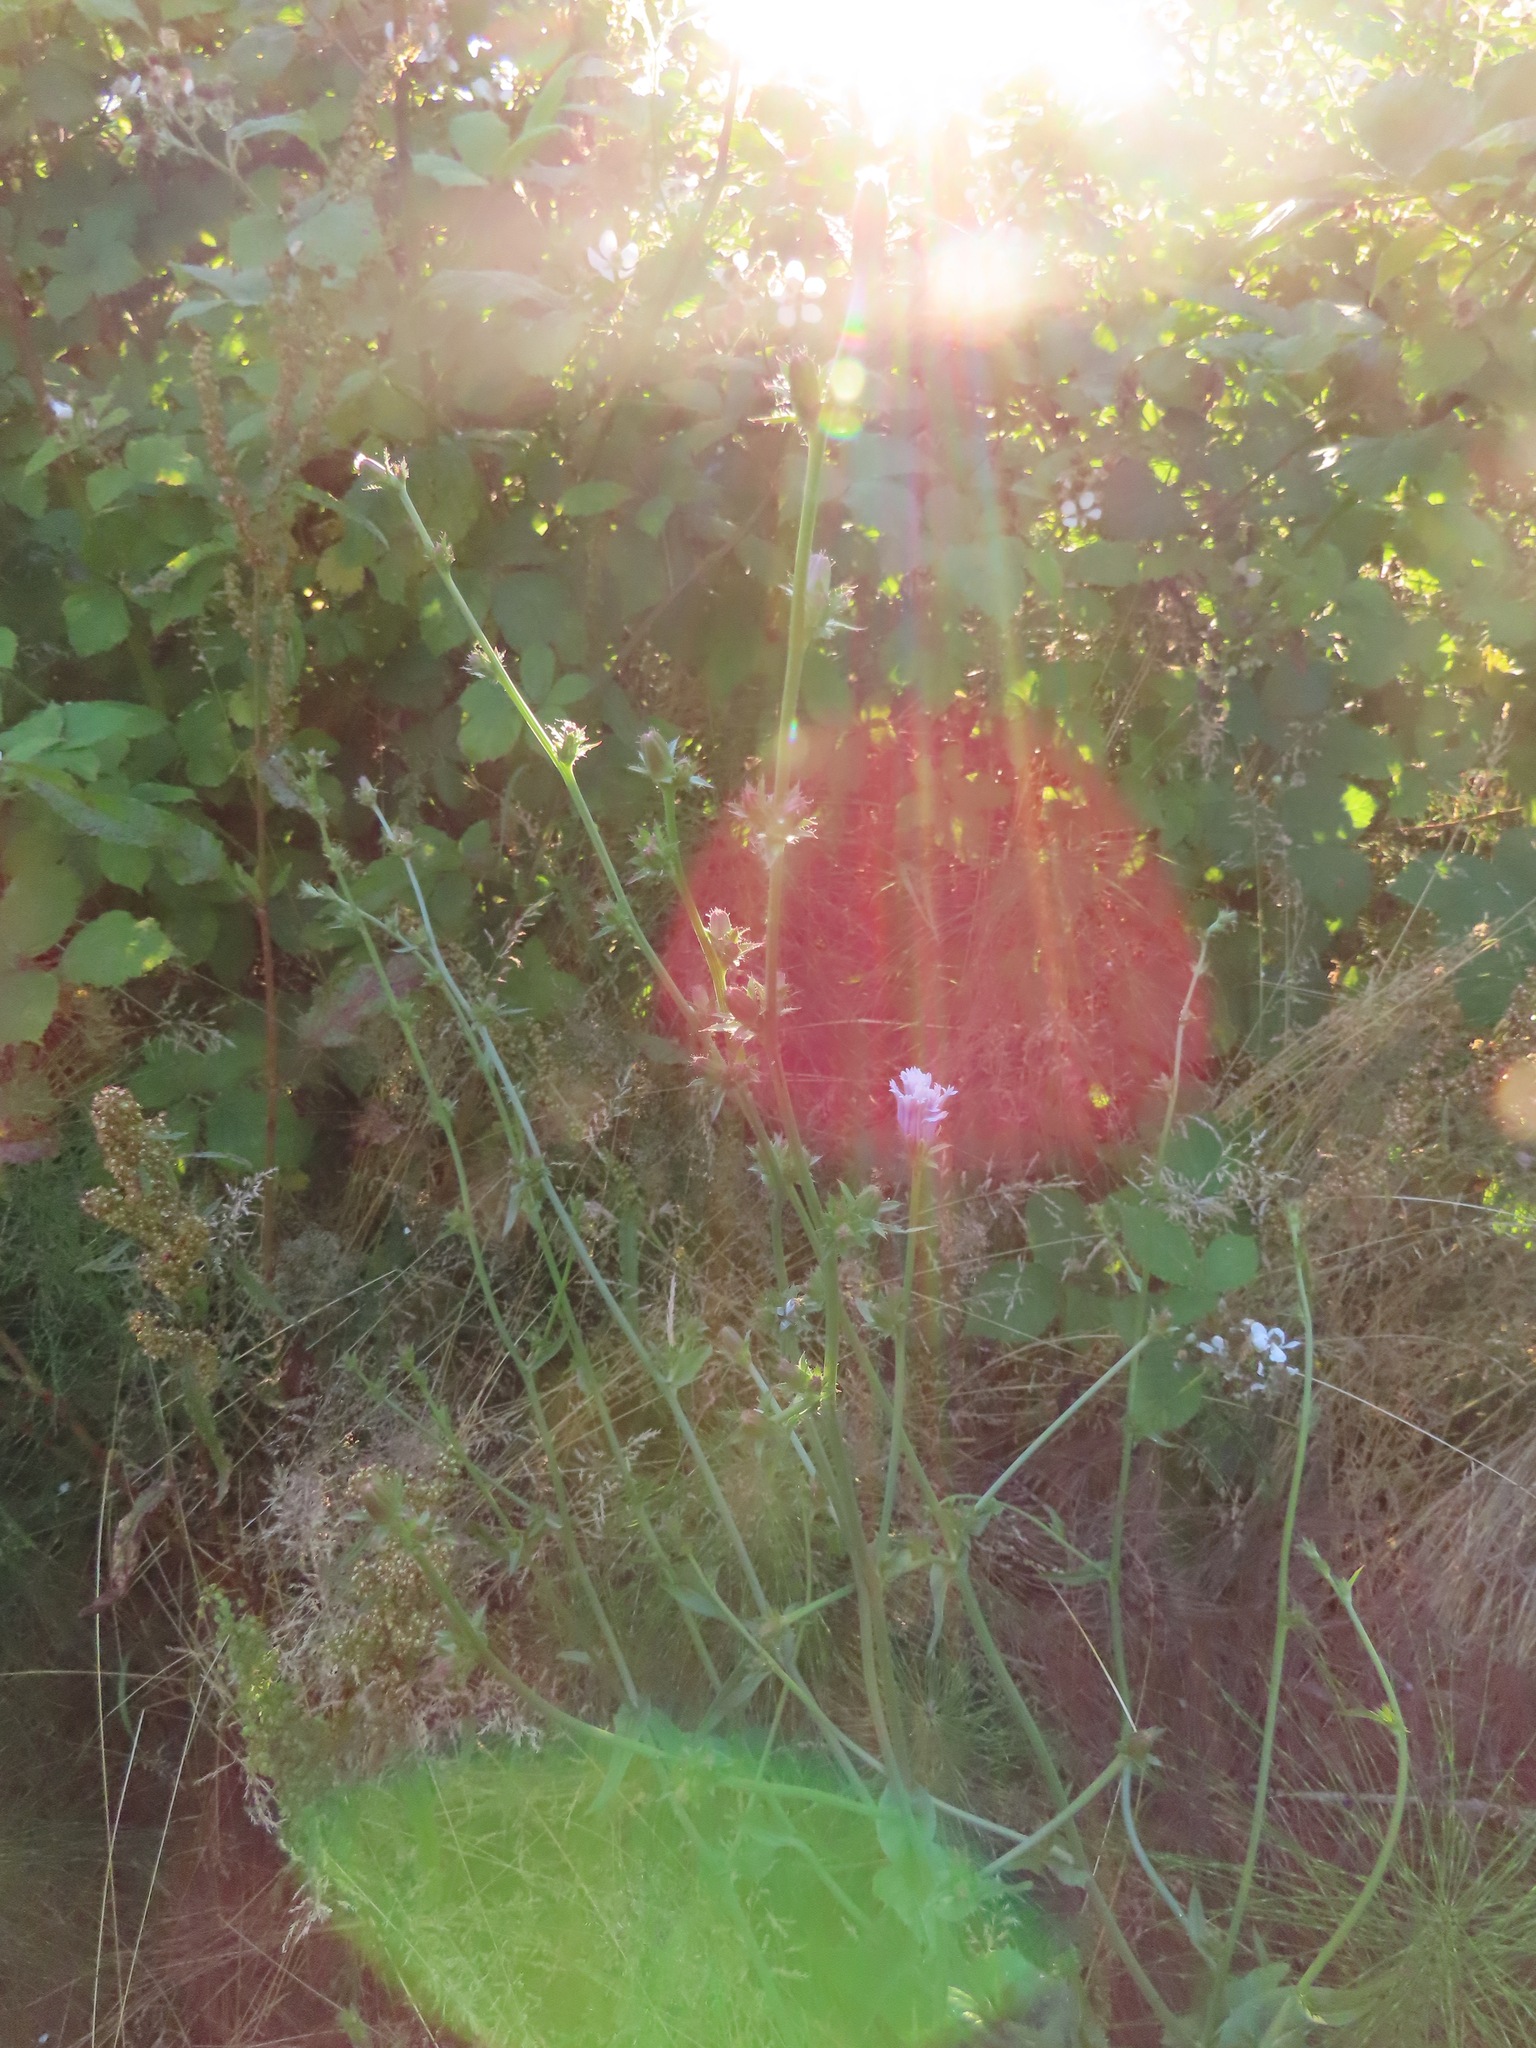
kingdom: Plantae
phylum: Tracheophyta
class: Magnoliopsida
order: Asterales
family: Asteraceae
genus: Cichorium
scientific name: Cichorium intybus
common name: Chicory
